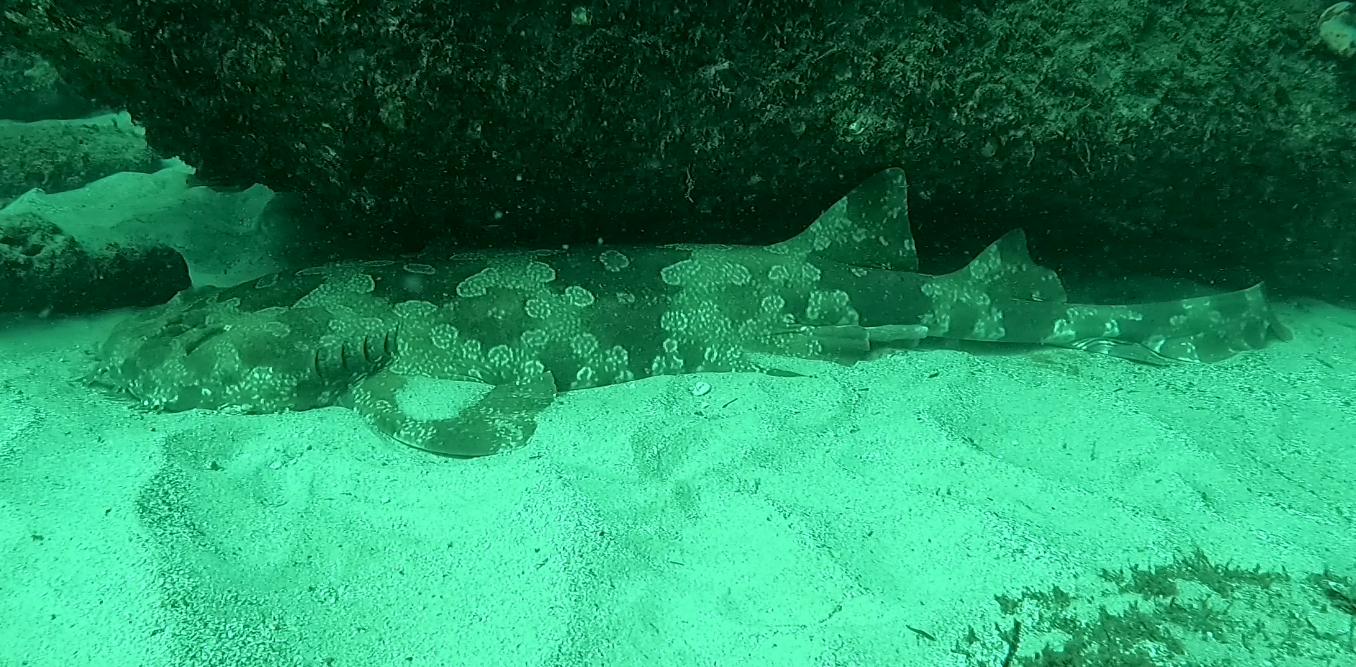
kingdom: Animalia
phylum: Chordata
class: Elasmobranchii
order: Orectolobiformes
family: Orectolobidae
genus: Orectolobus
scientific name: Orectolobus maculatus
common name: Spotted wobbegong
